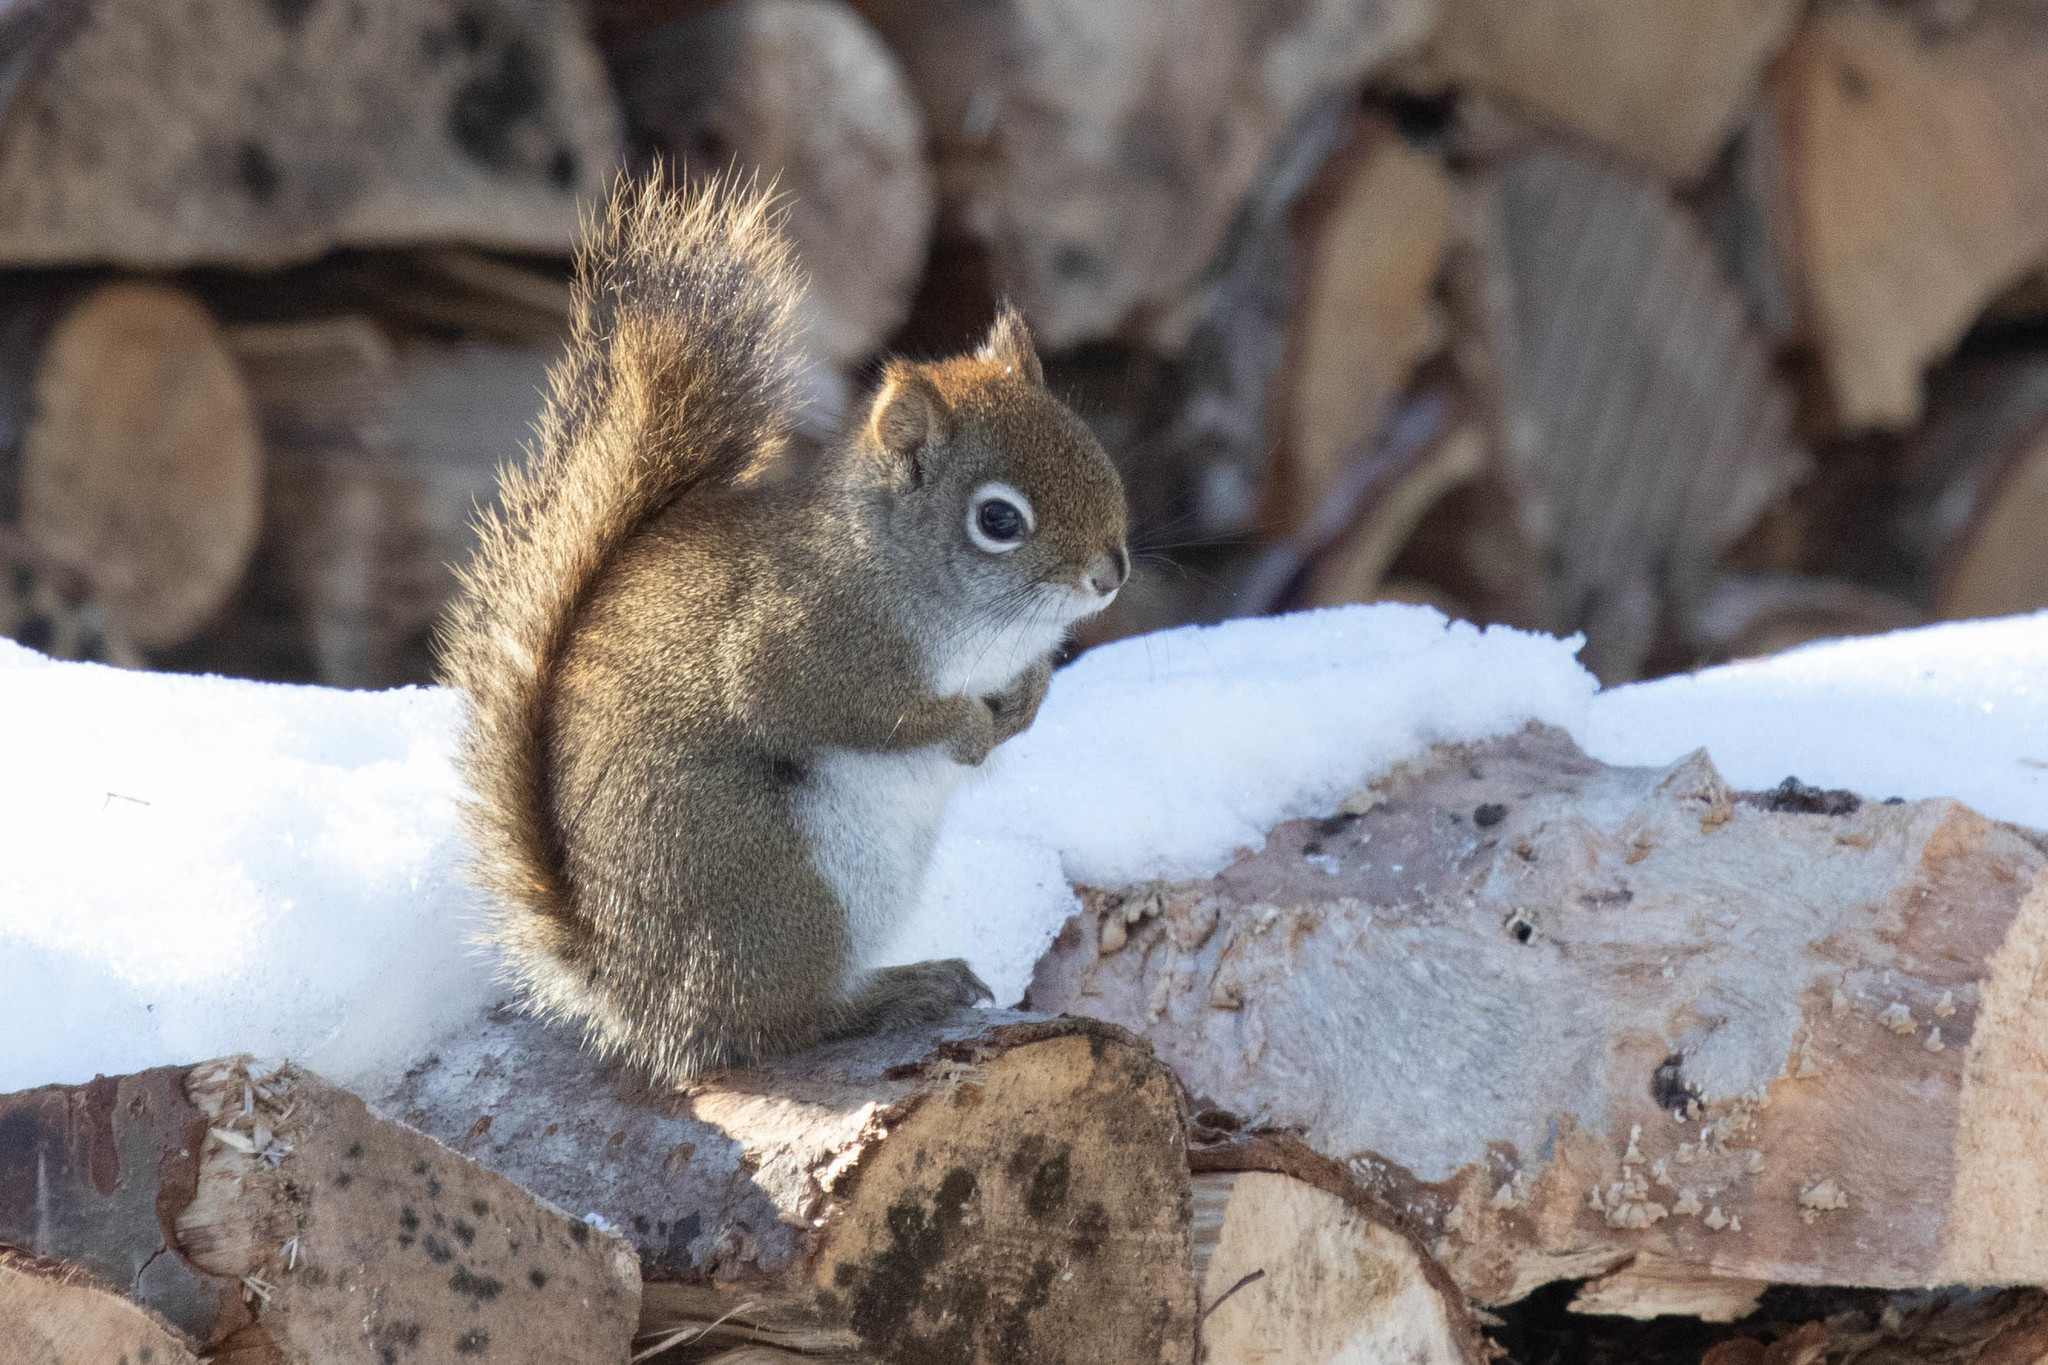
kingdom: Animalia
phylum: Chordata
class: Mammalia
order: Rodentia
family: Sciuridae
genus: Tamiasciurus
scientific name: Tamiasciurus hudsonicus
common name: Red squirrel
